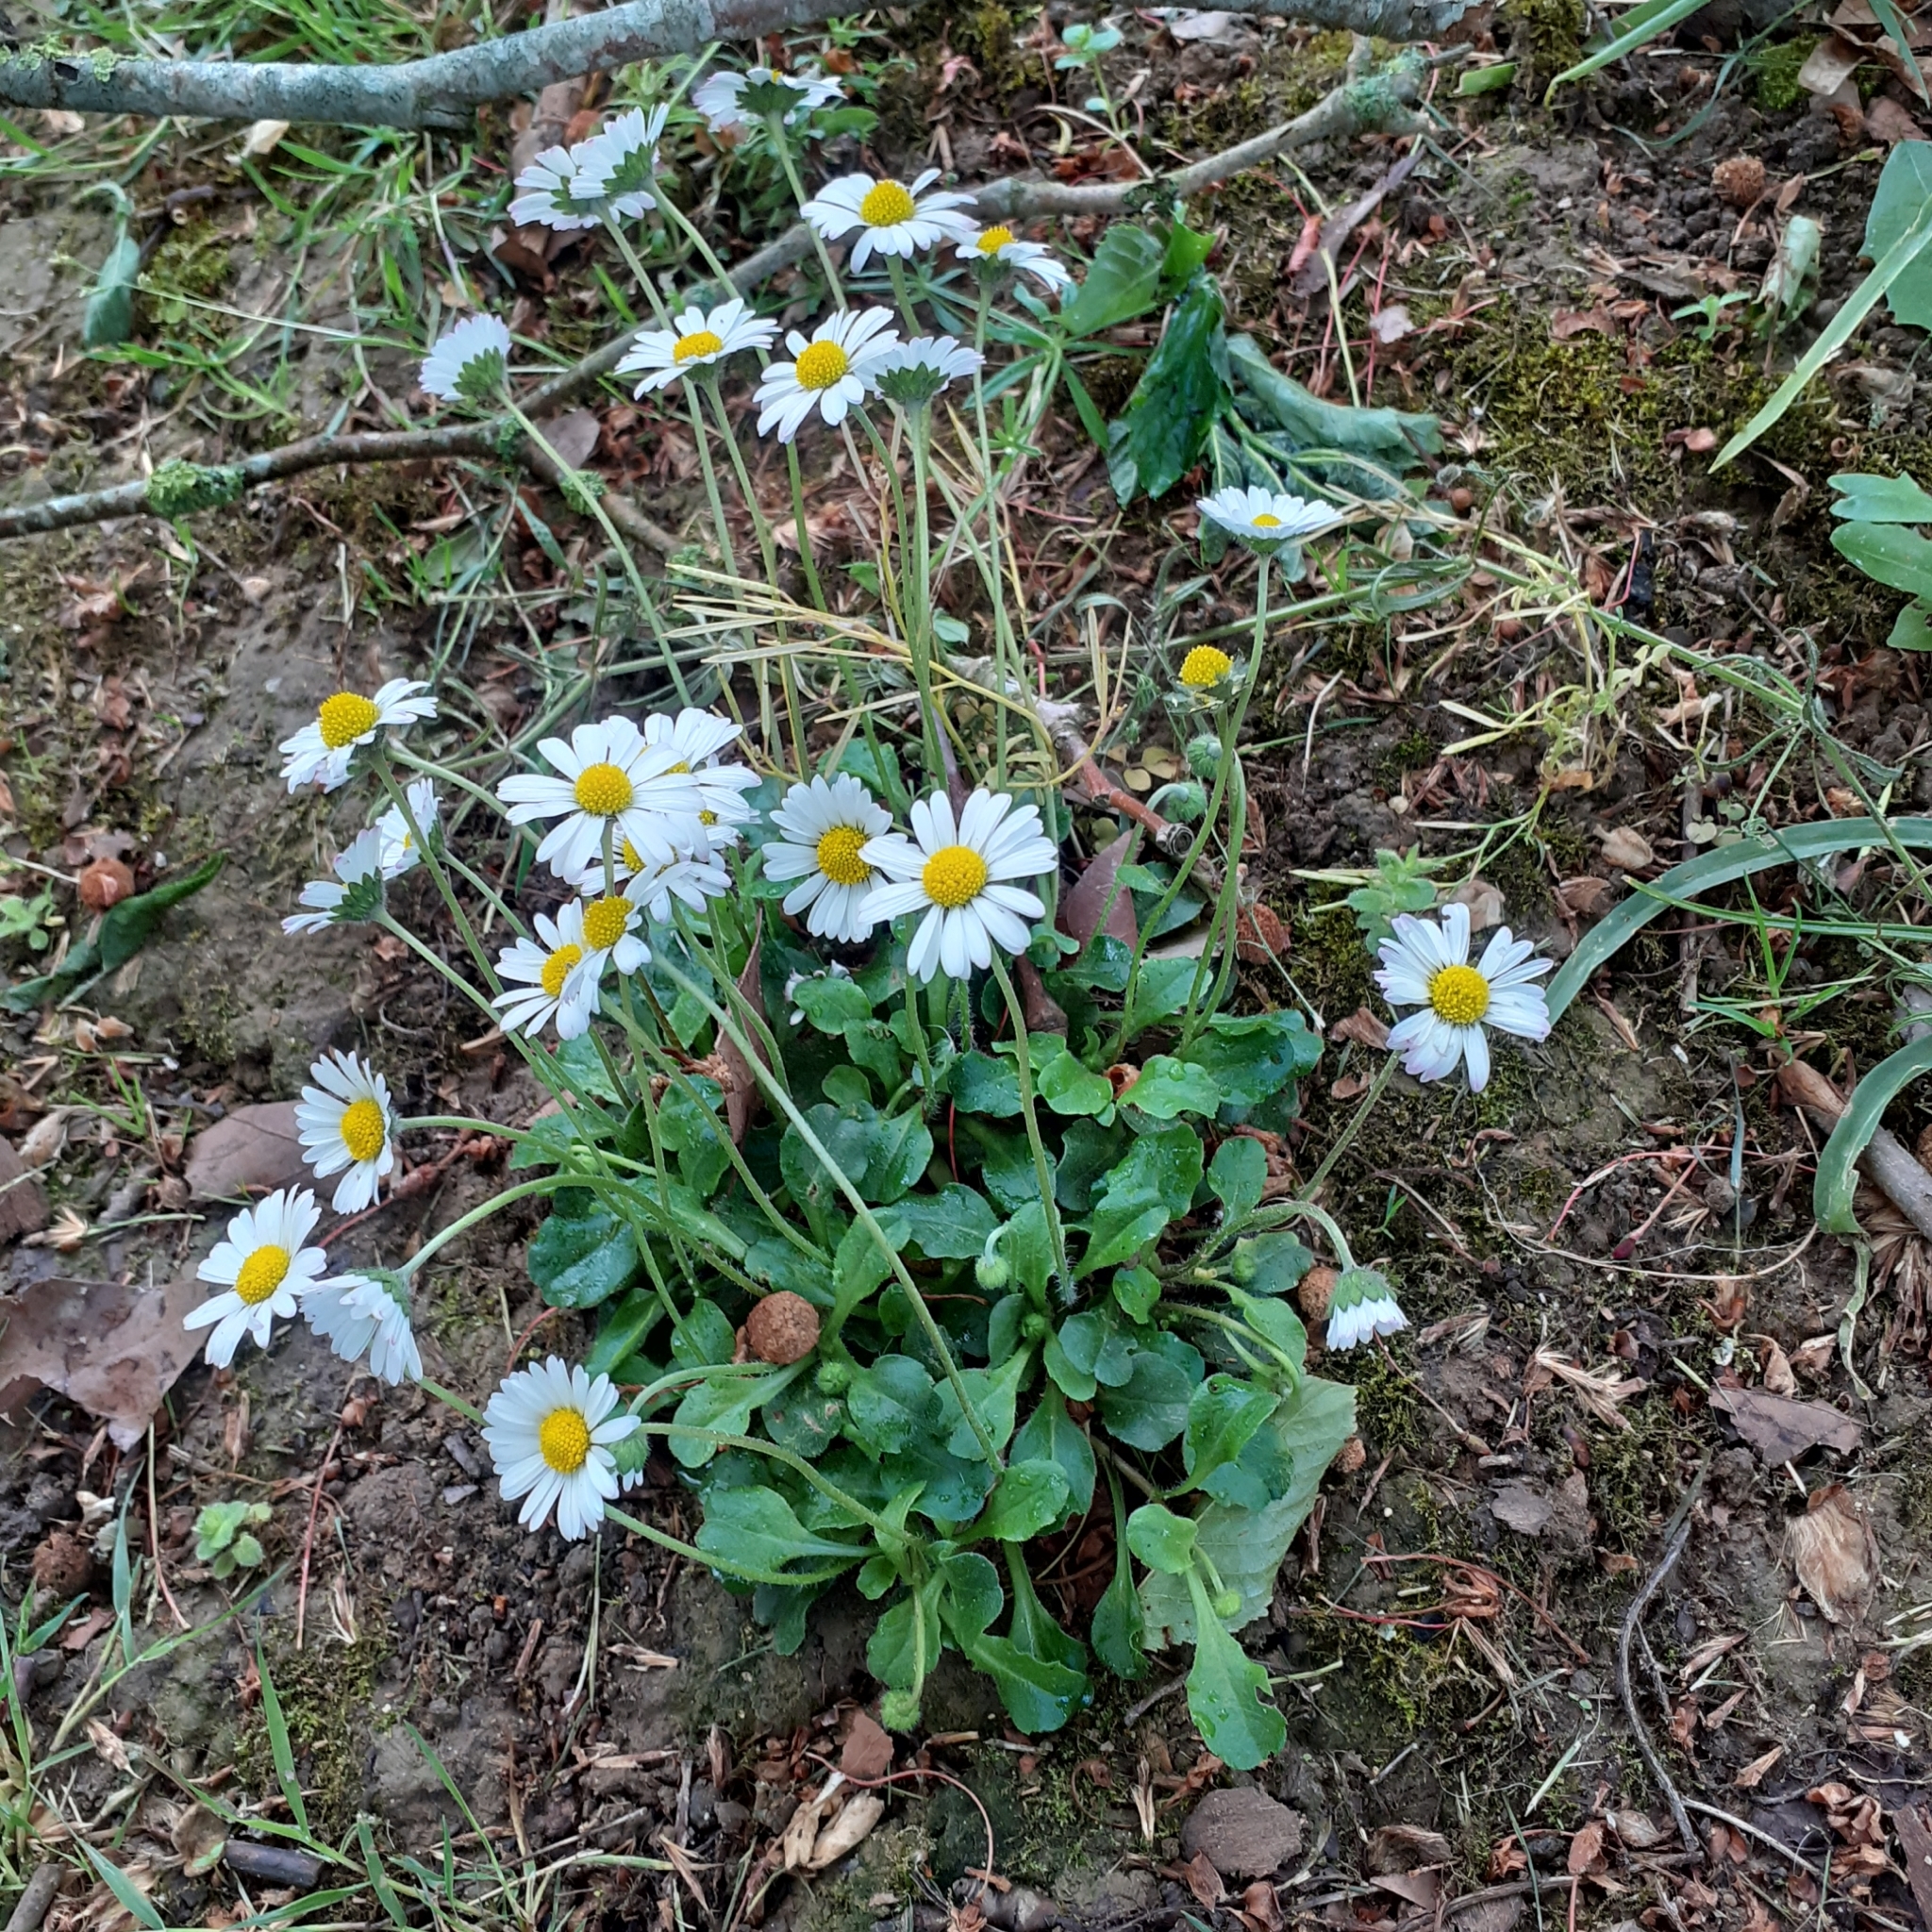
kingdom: Plantae
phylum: Tracheophyta
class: Magnoliopsida
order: Asterales
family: Asteraceae
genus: Bellis
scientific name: Bellis perennis
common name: Lawndaisy
